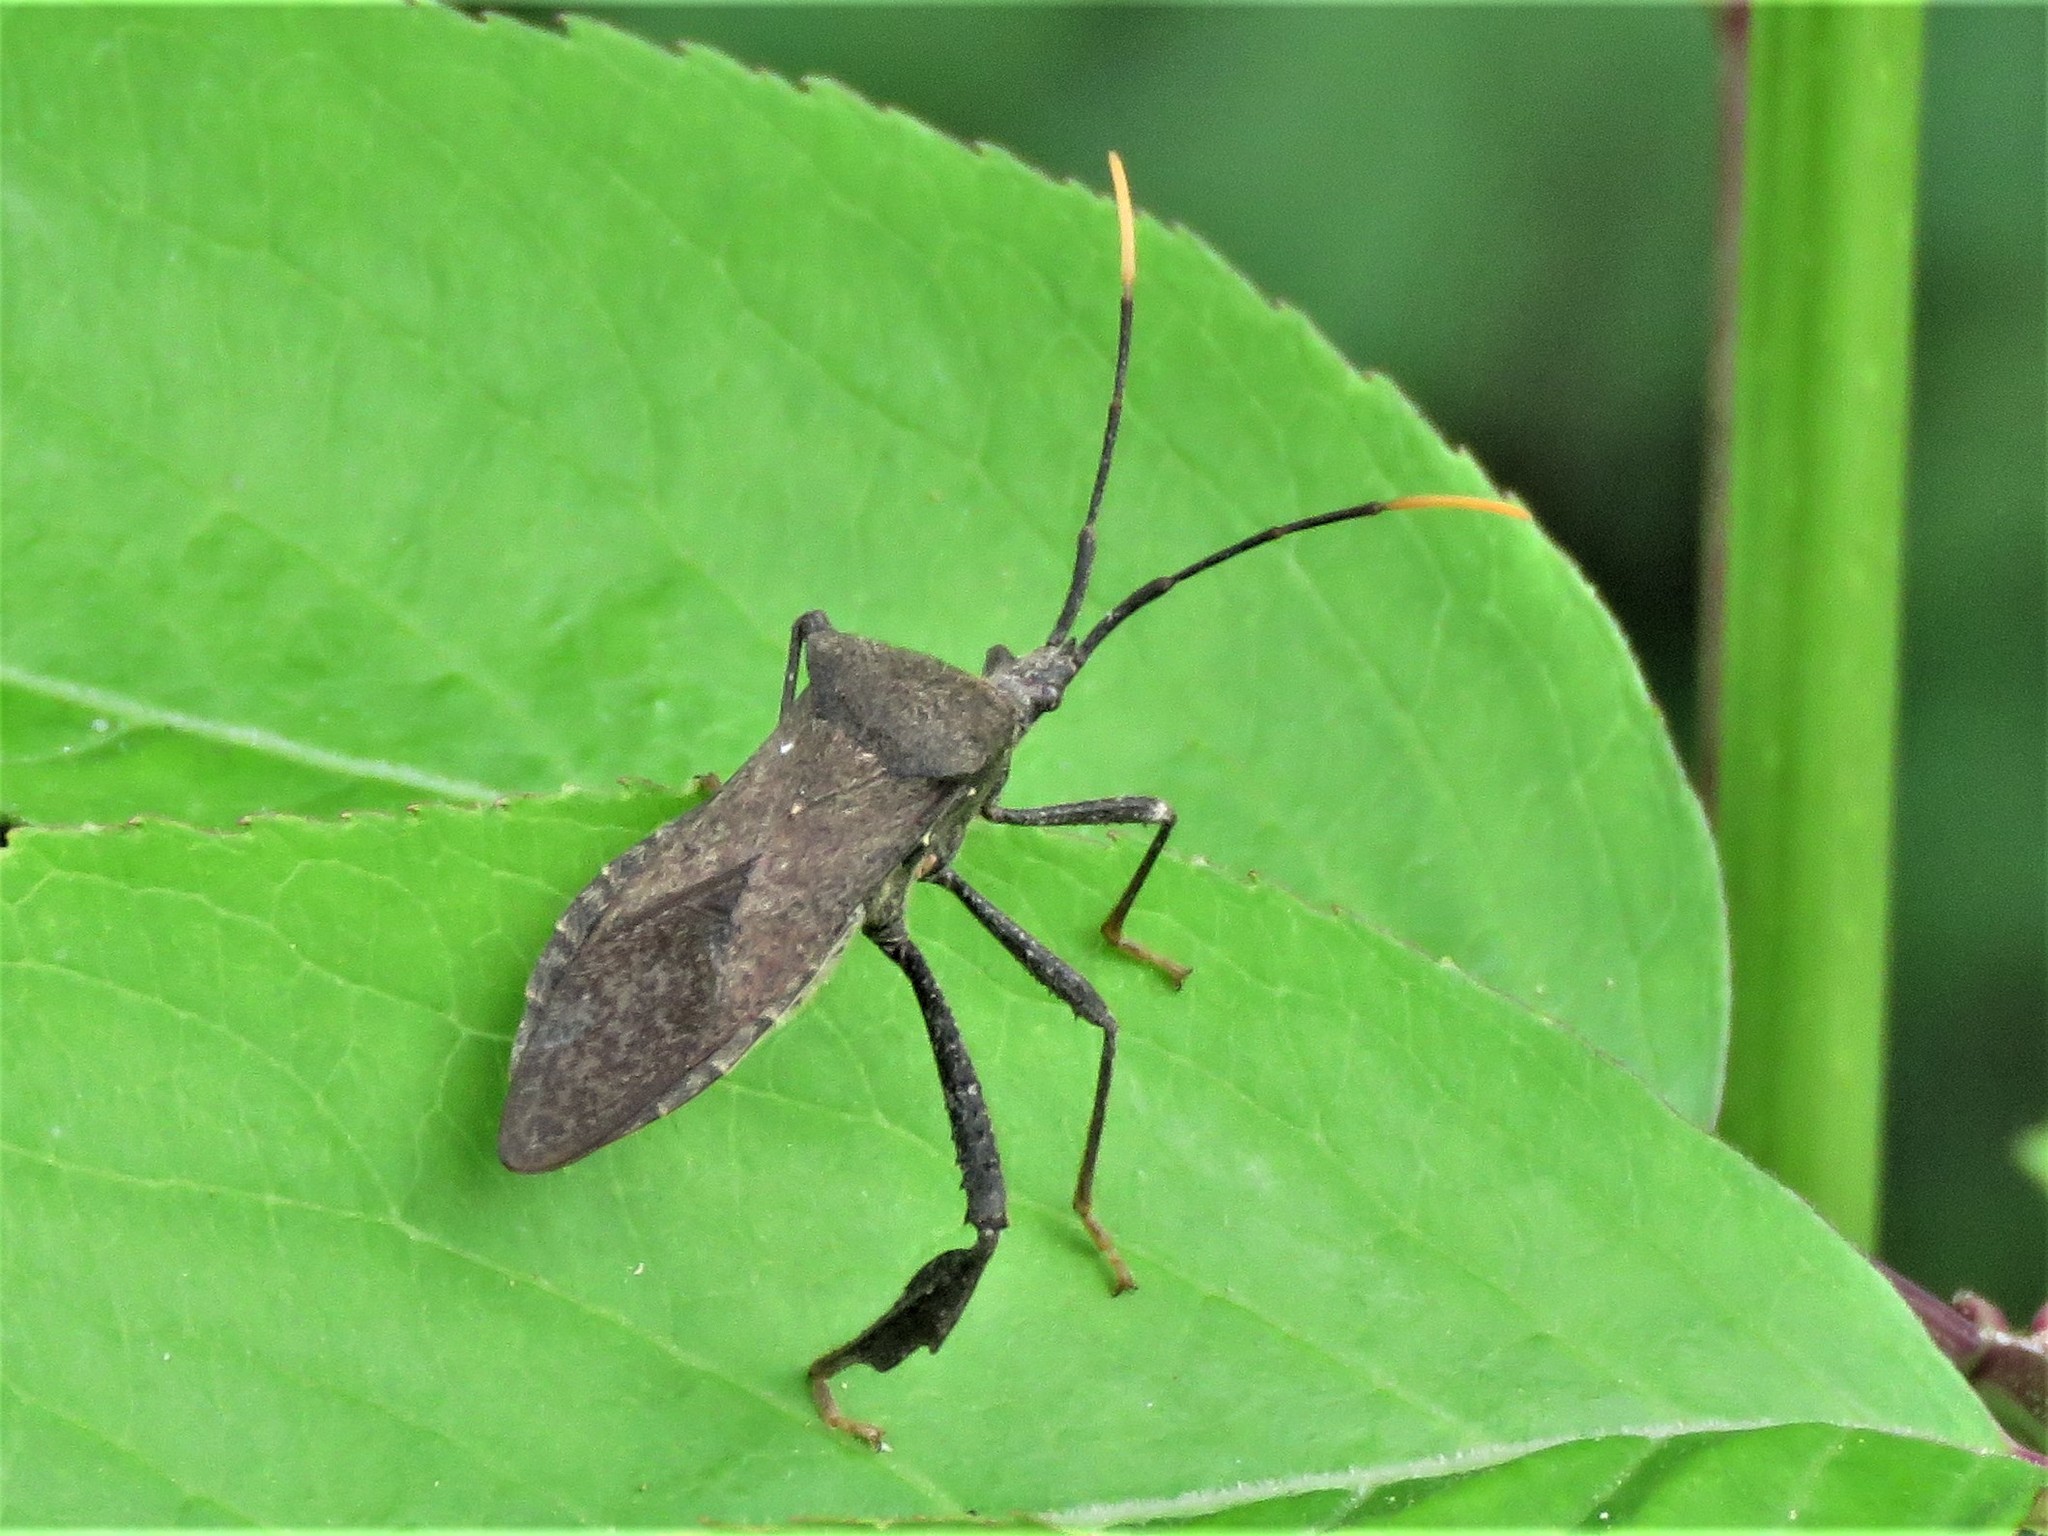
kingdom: Animalia
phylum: Arthropoda
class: Insecta
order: Hemiptera
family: Coreidae
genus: Acanthocephala
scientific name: Acanthocephala terminalis
